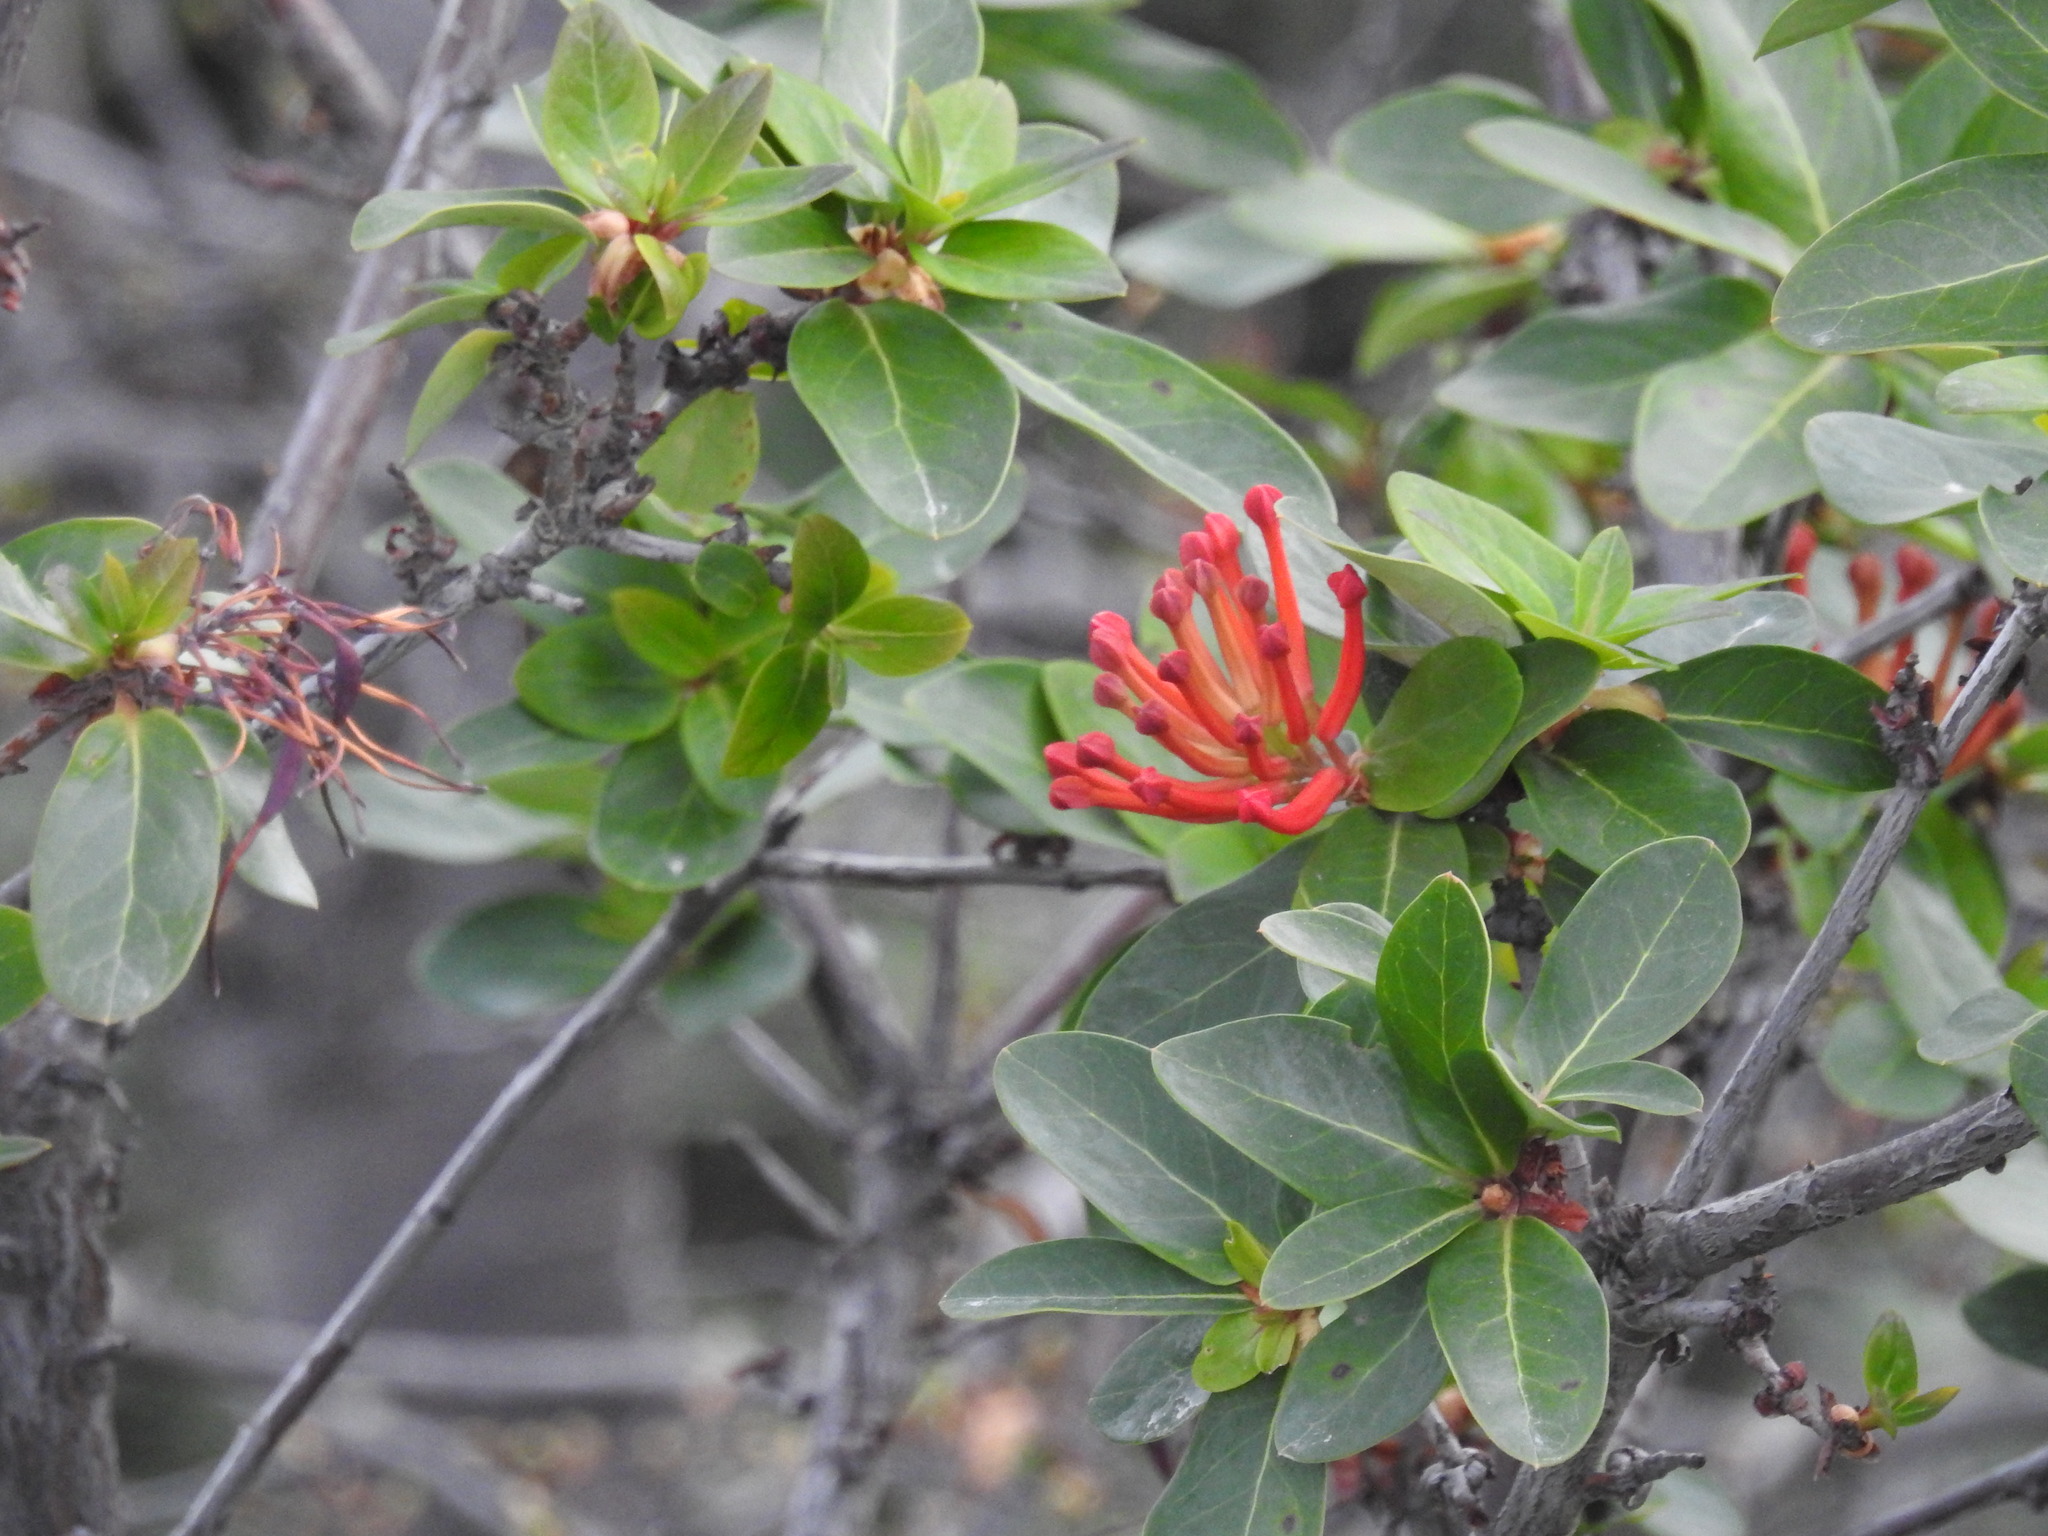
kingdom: Plantae
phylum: Tracheophyta
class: Magnoliopsida
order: Proteales
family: Proteaceae
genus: Embothrium
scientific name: Embothrium coccineum
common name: Chilean firebush
